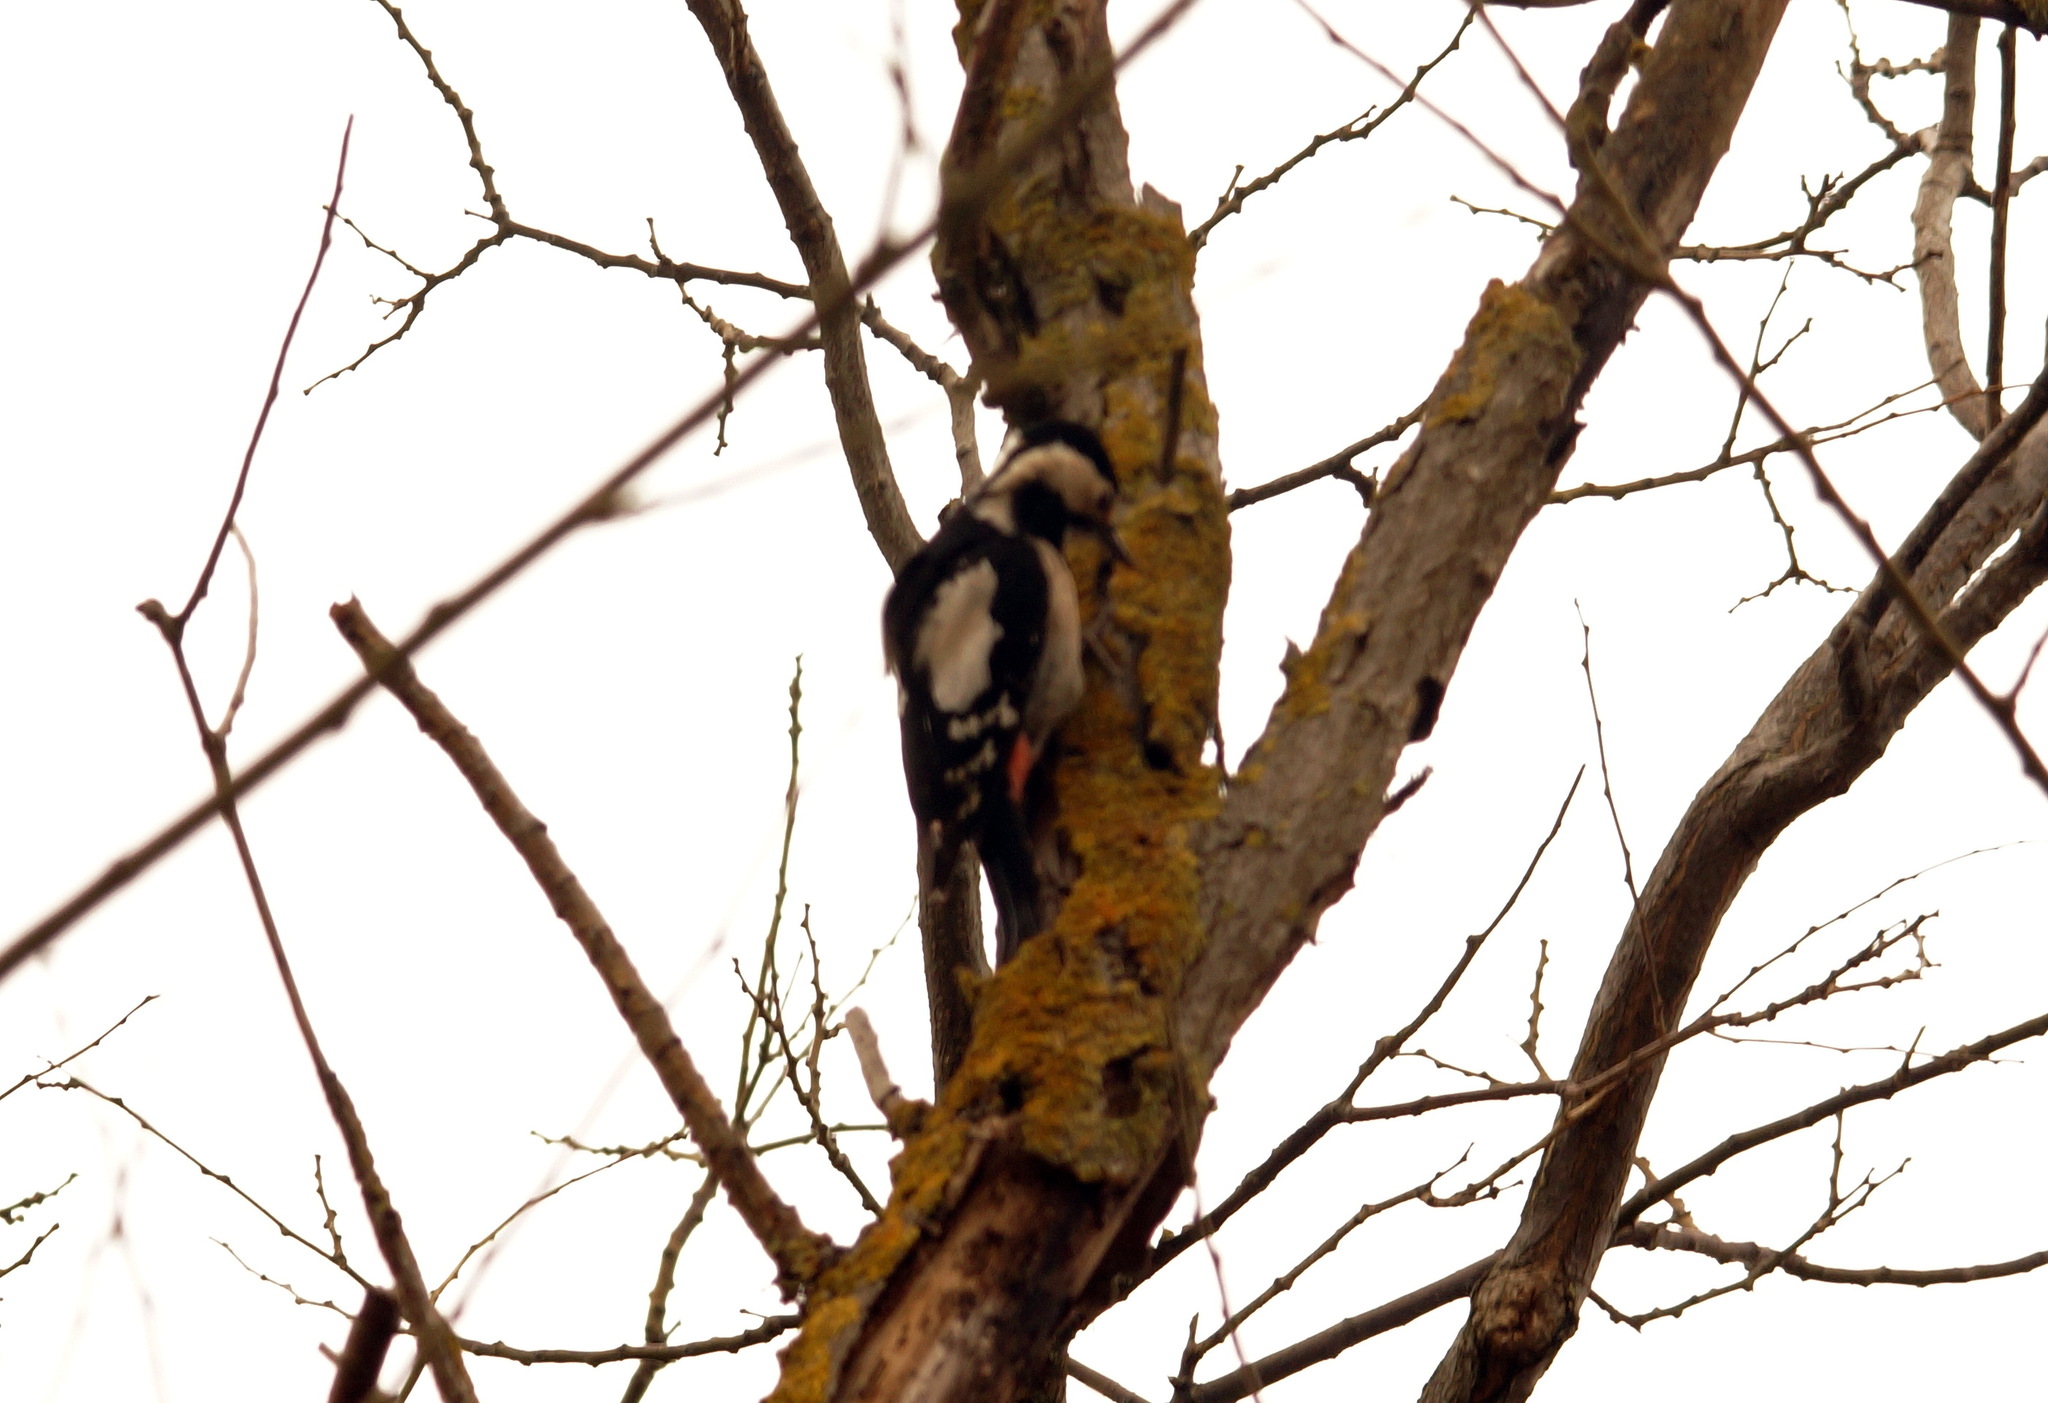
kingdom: Animalia
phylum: Chordata
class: Aves
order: Piciformes
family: Picidae
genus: Dendrocopos
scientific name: Dendrocopos syriacus
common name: Syrian woodpecker
